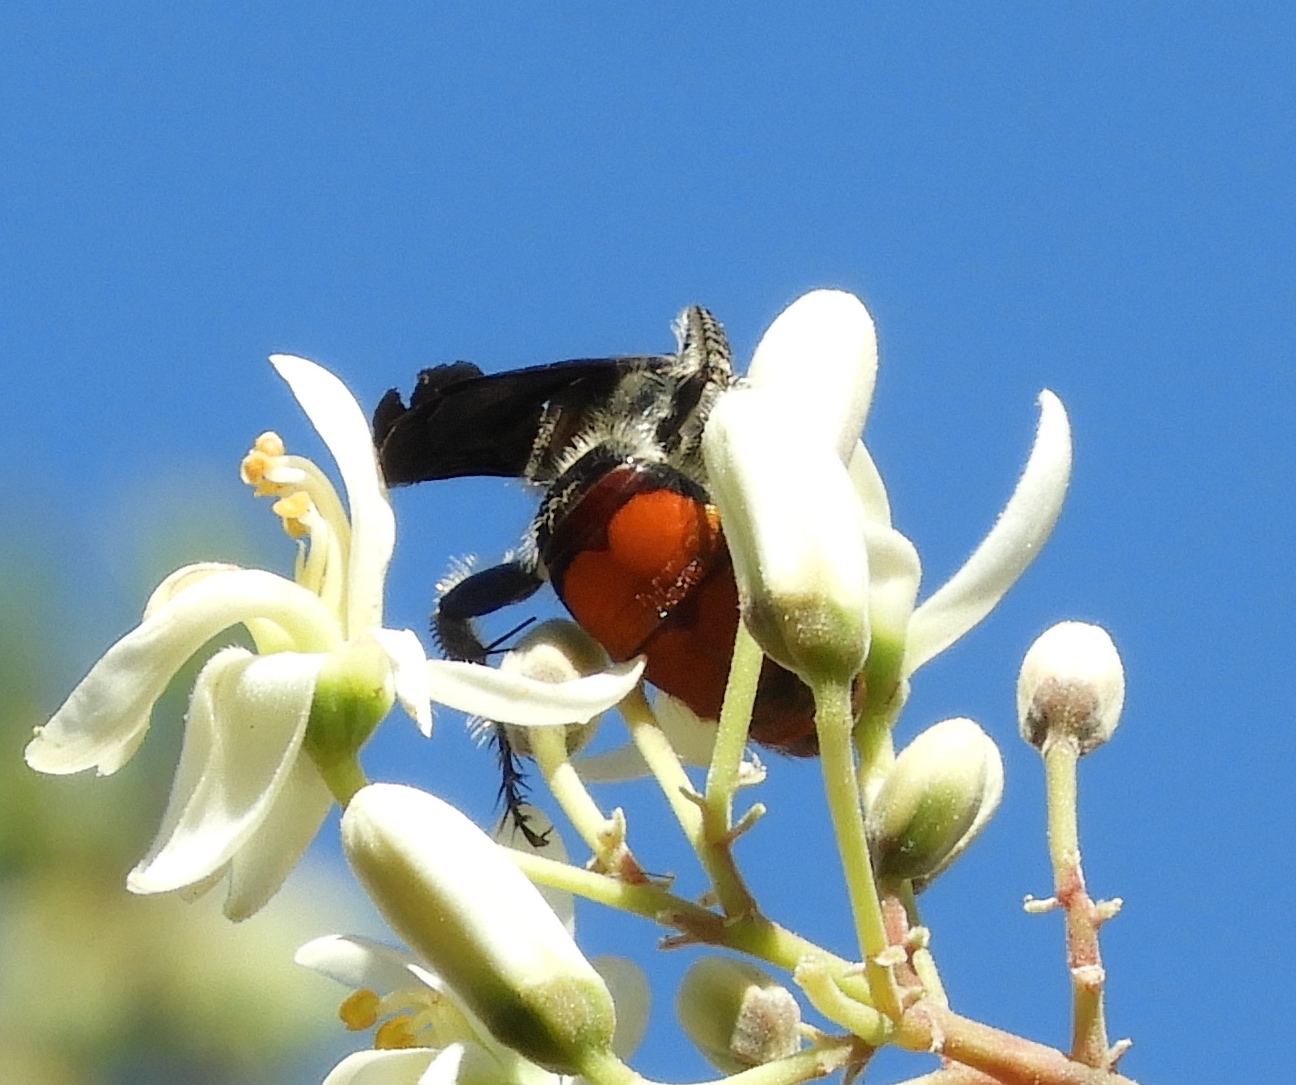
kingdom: Animalia
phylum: Arthropoda
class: Insecta
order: Hymenoptera
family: Scoliidae
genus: Dielis
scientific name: Dielis tolteca
